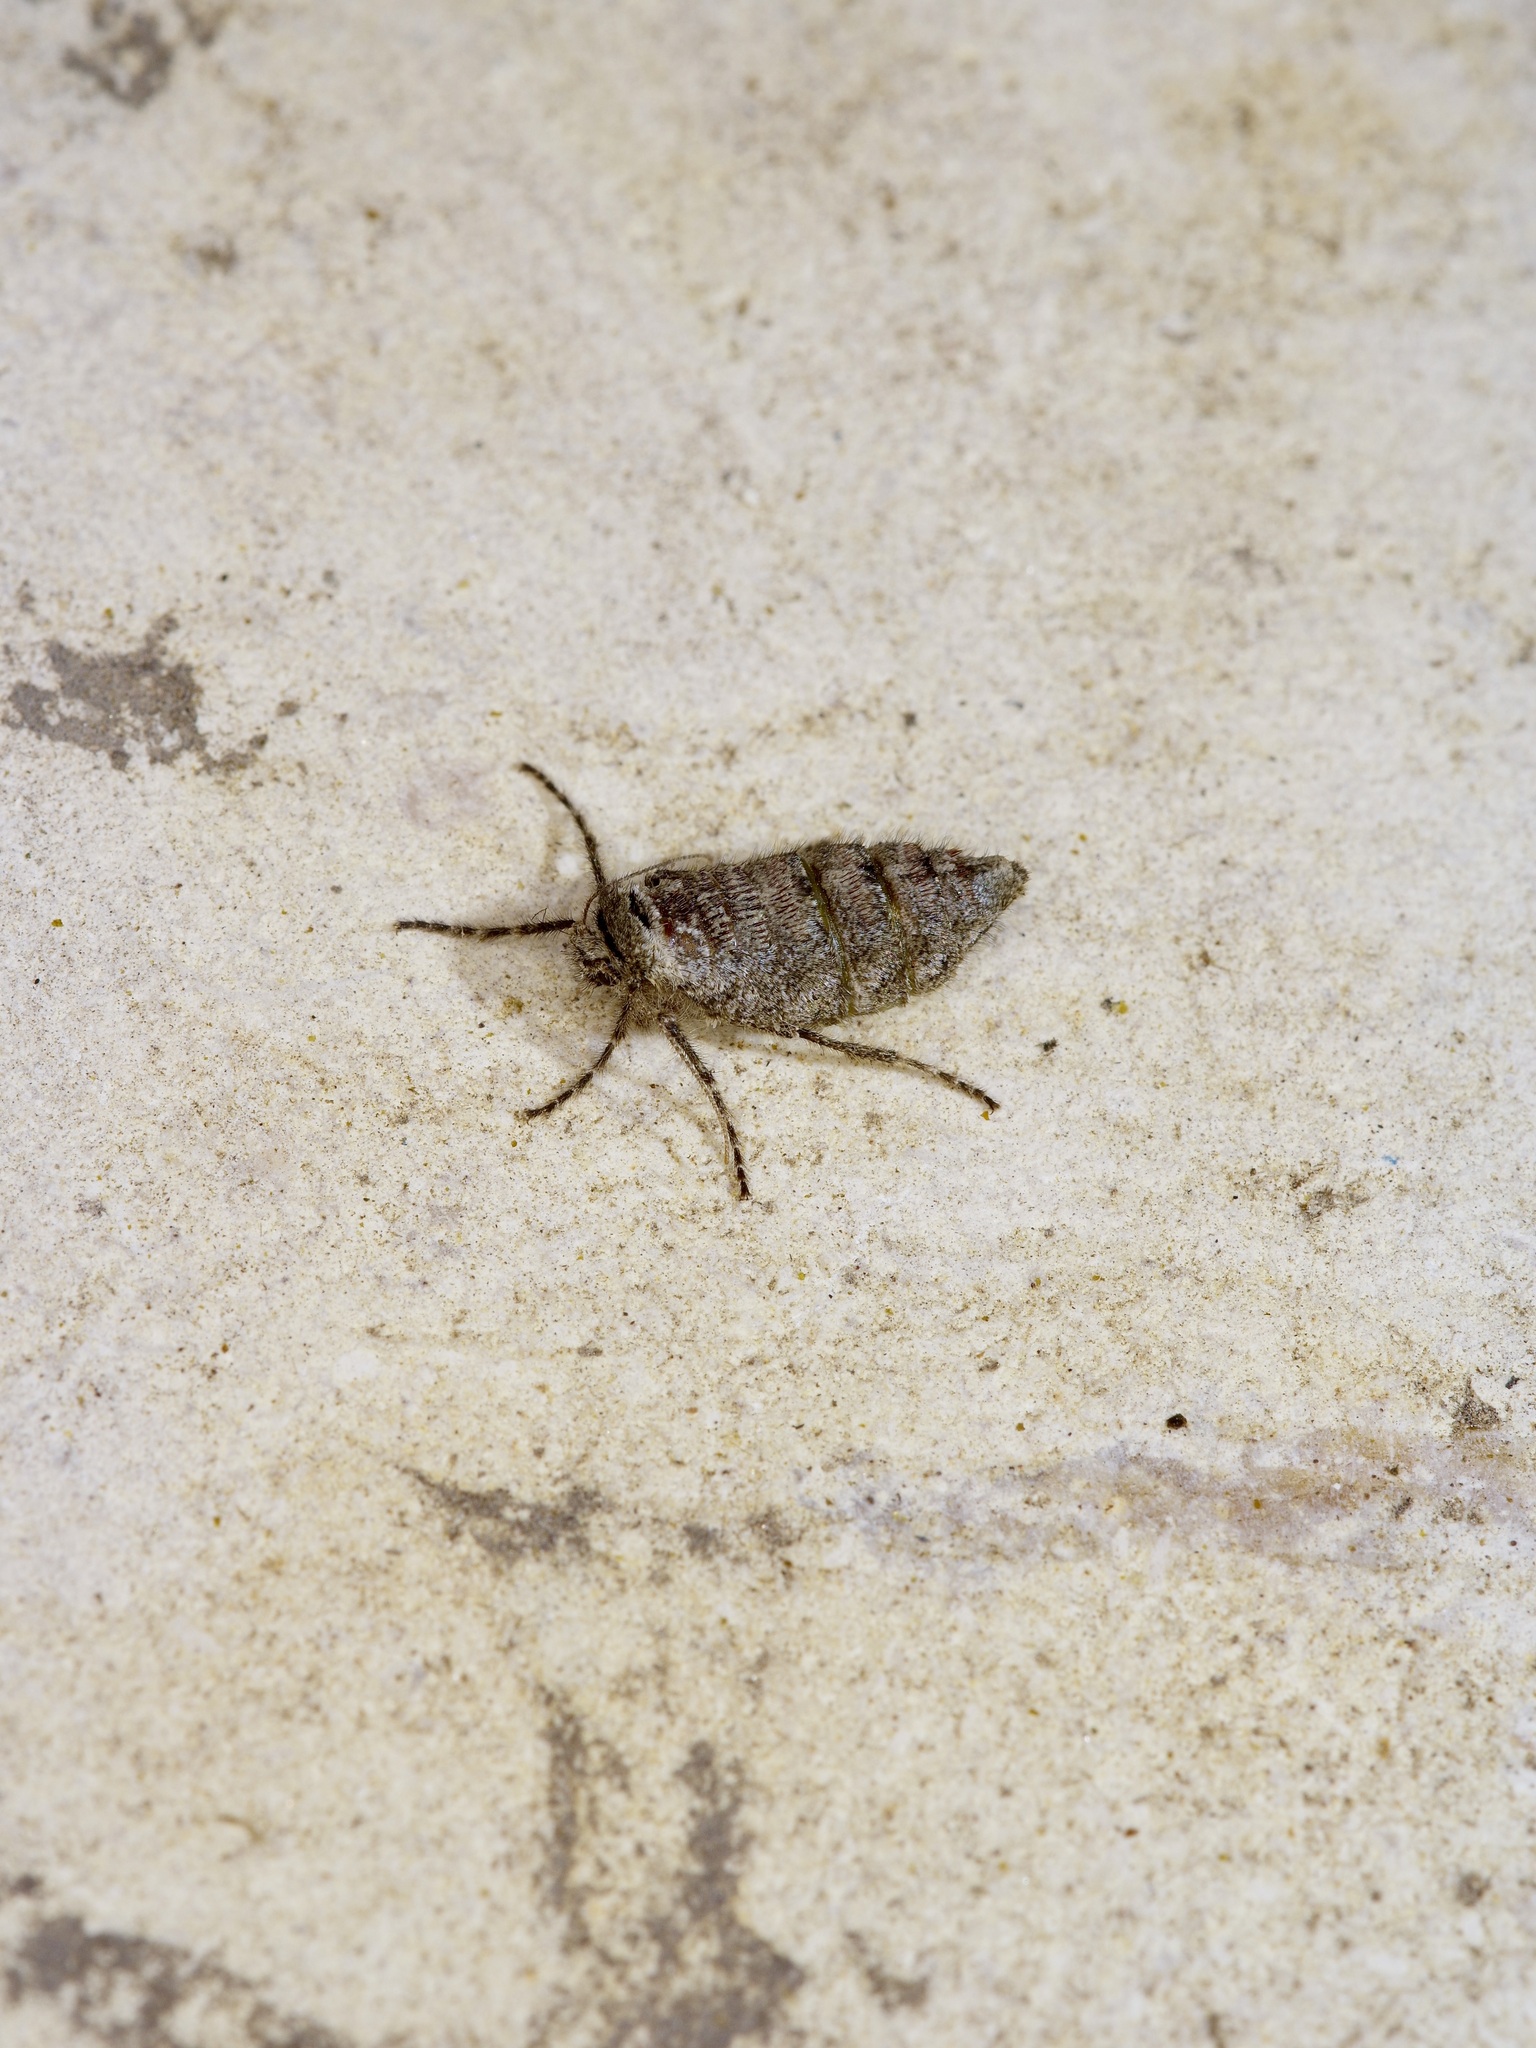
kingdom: Animalia
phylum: Arthropoda
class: Insecta
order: Lepidoptera
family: Geometridae
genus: Phigalia
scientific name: Phigalia strigataria
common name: Small phigalia
